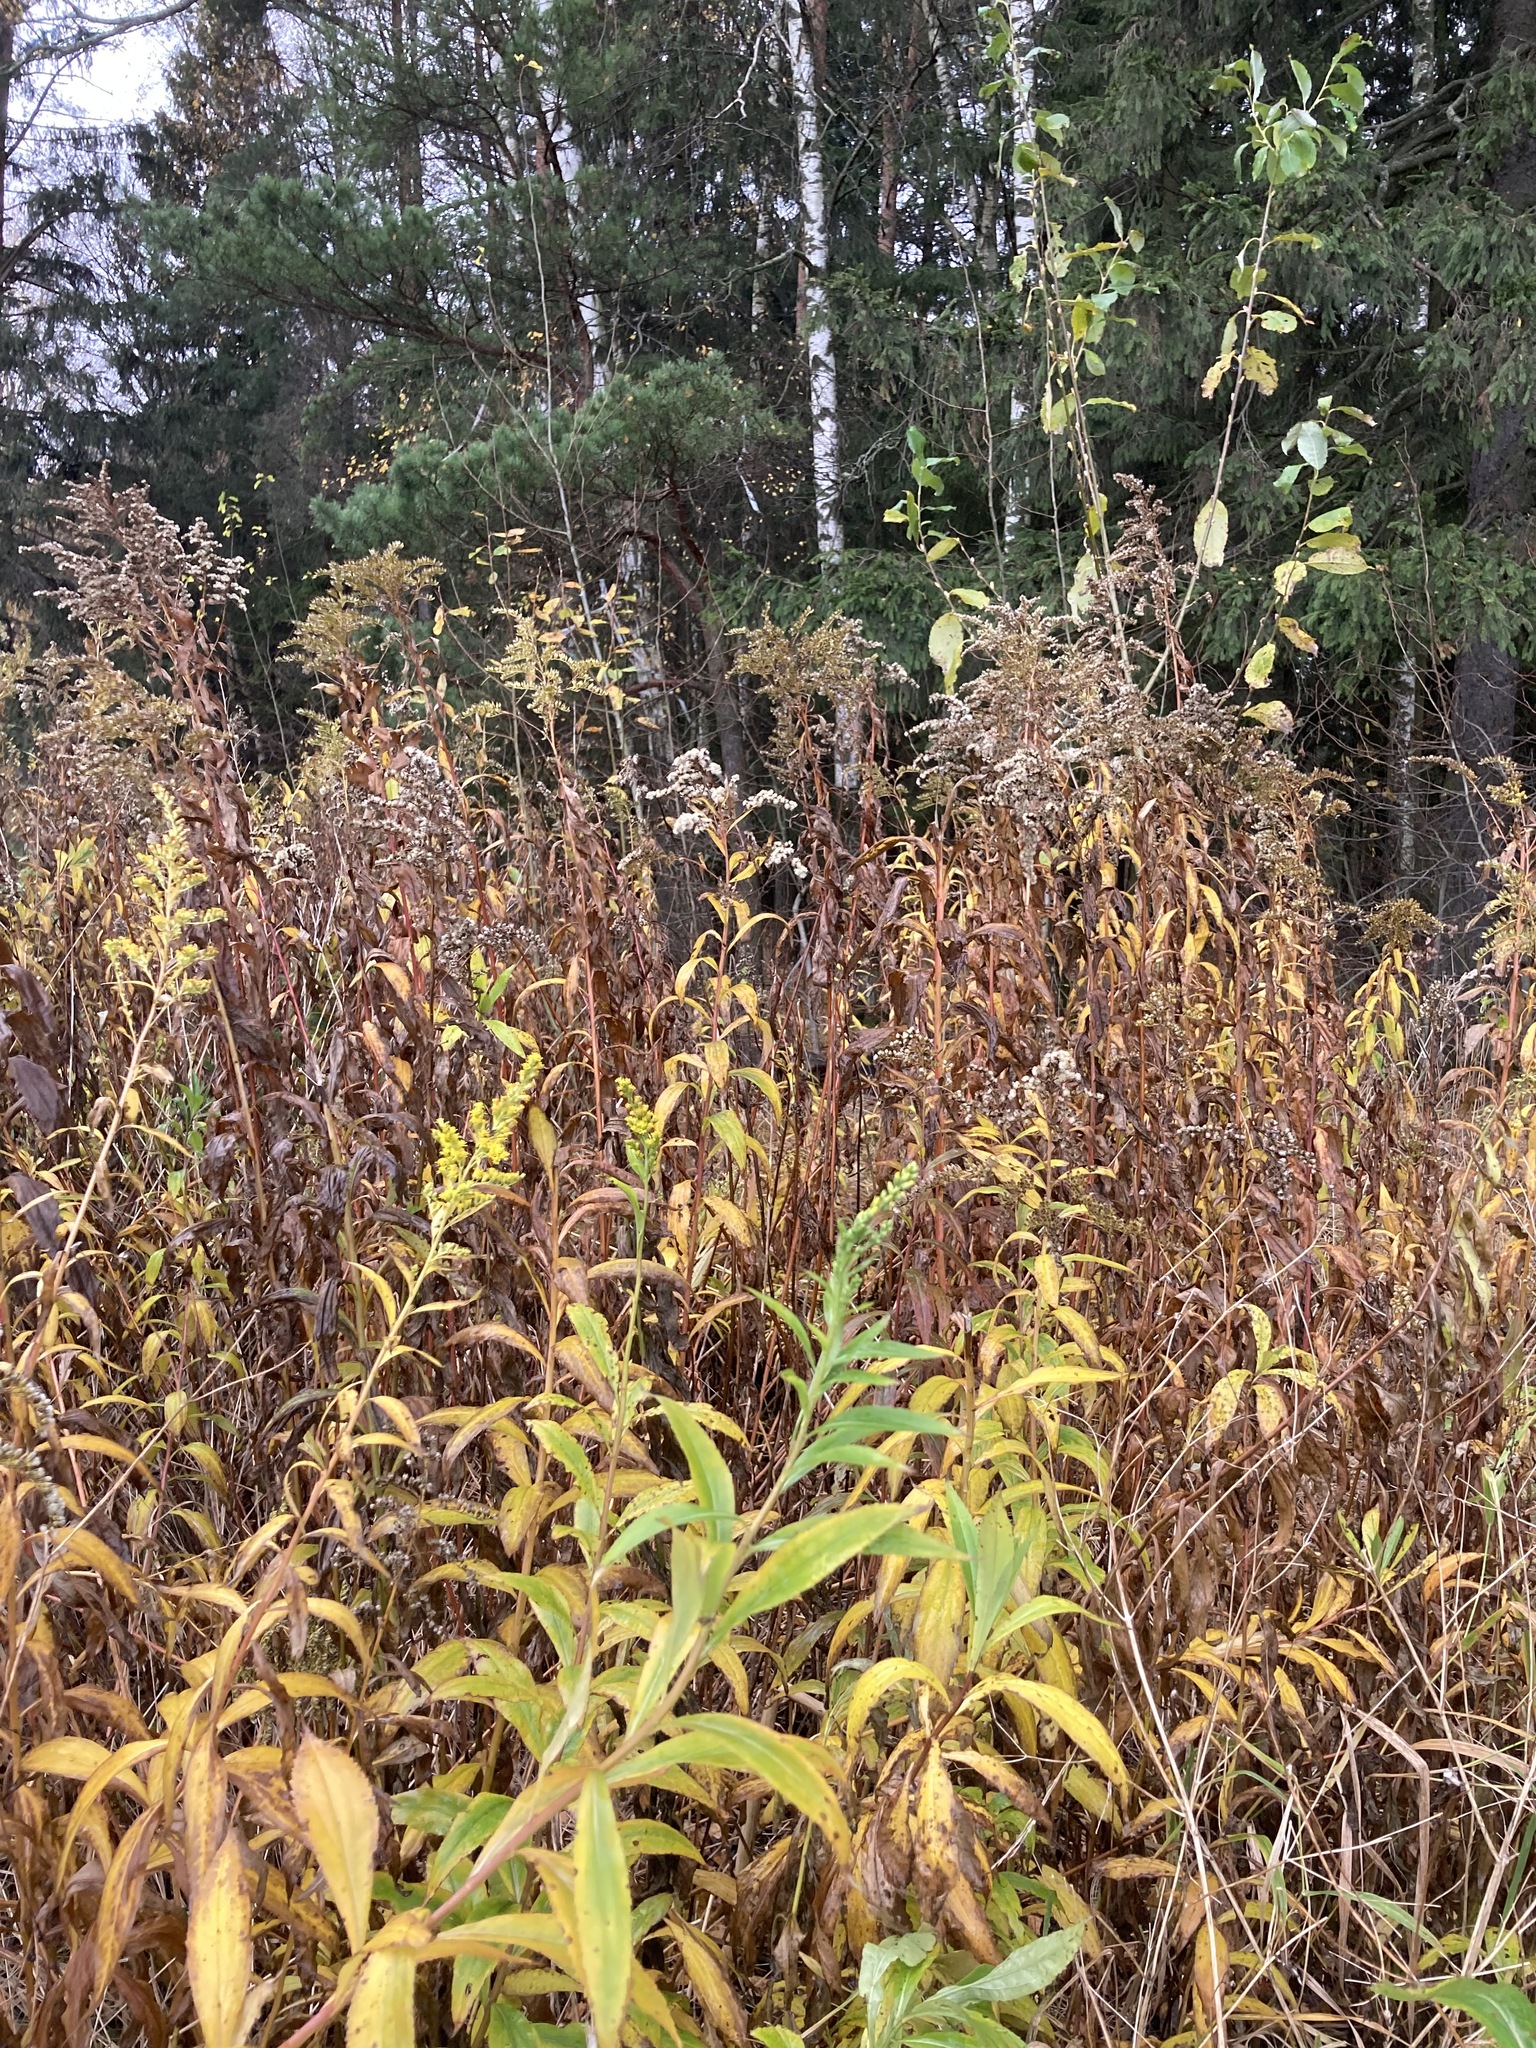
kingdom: Plantae
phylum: Tracheophyta
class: Magnoliopsida
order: Asterales
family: Asteraceae
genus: Solidago
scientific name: Solidago gigantea
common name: Giant goldenrod
